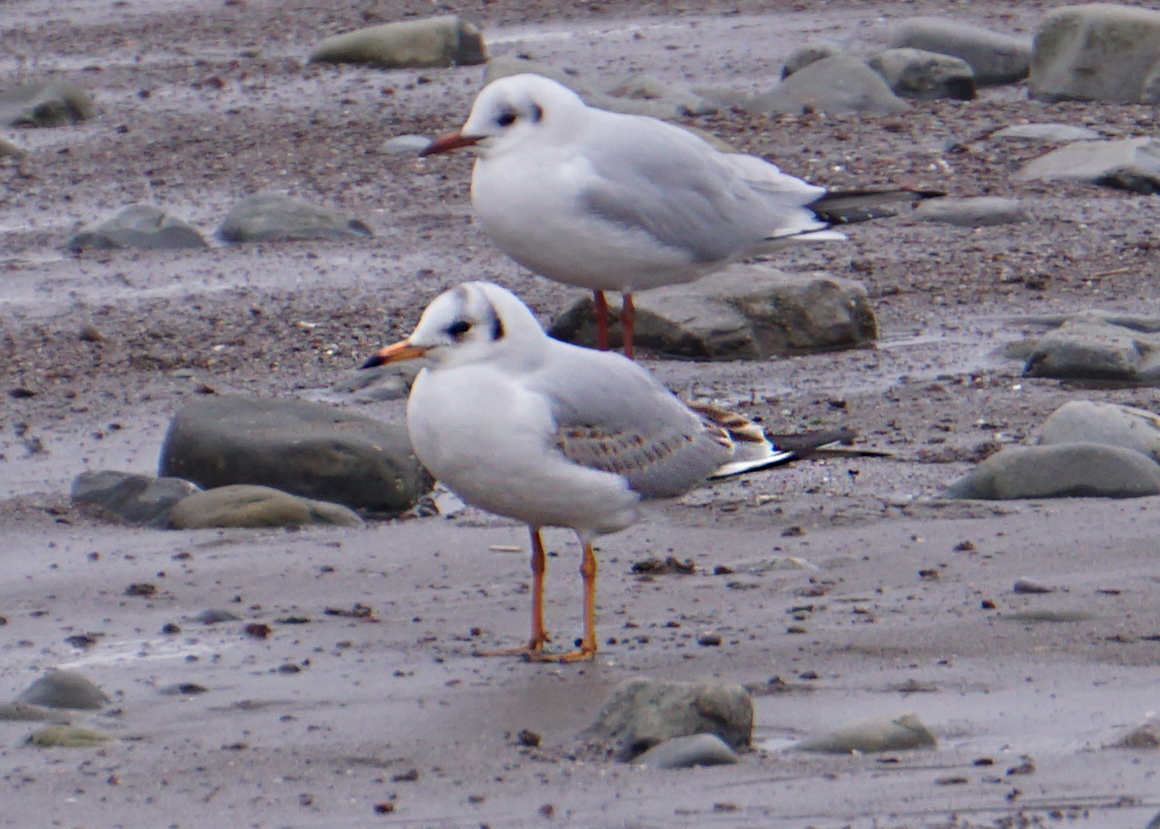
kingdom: Animalia
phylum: Chordata
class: Aves
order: Charadriiformes
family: Laridae
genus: Chroicocephalus
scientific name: Chroicocephalus ridibundus
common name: Black-headed gull
